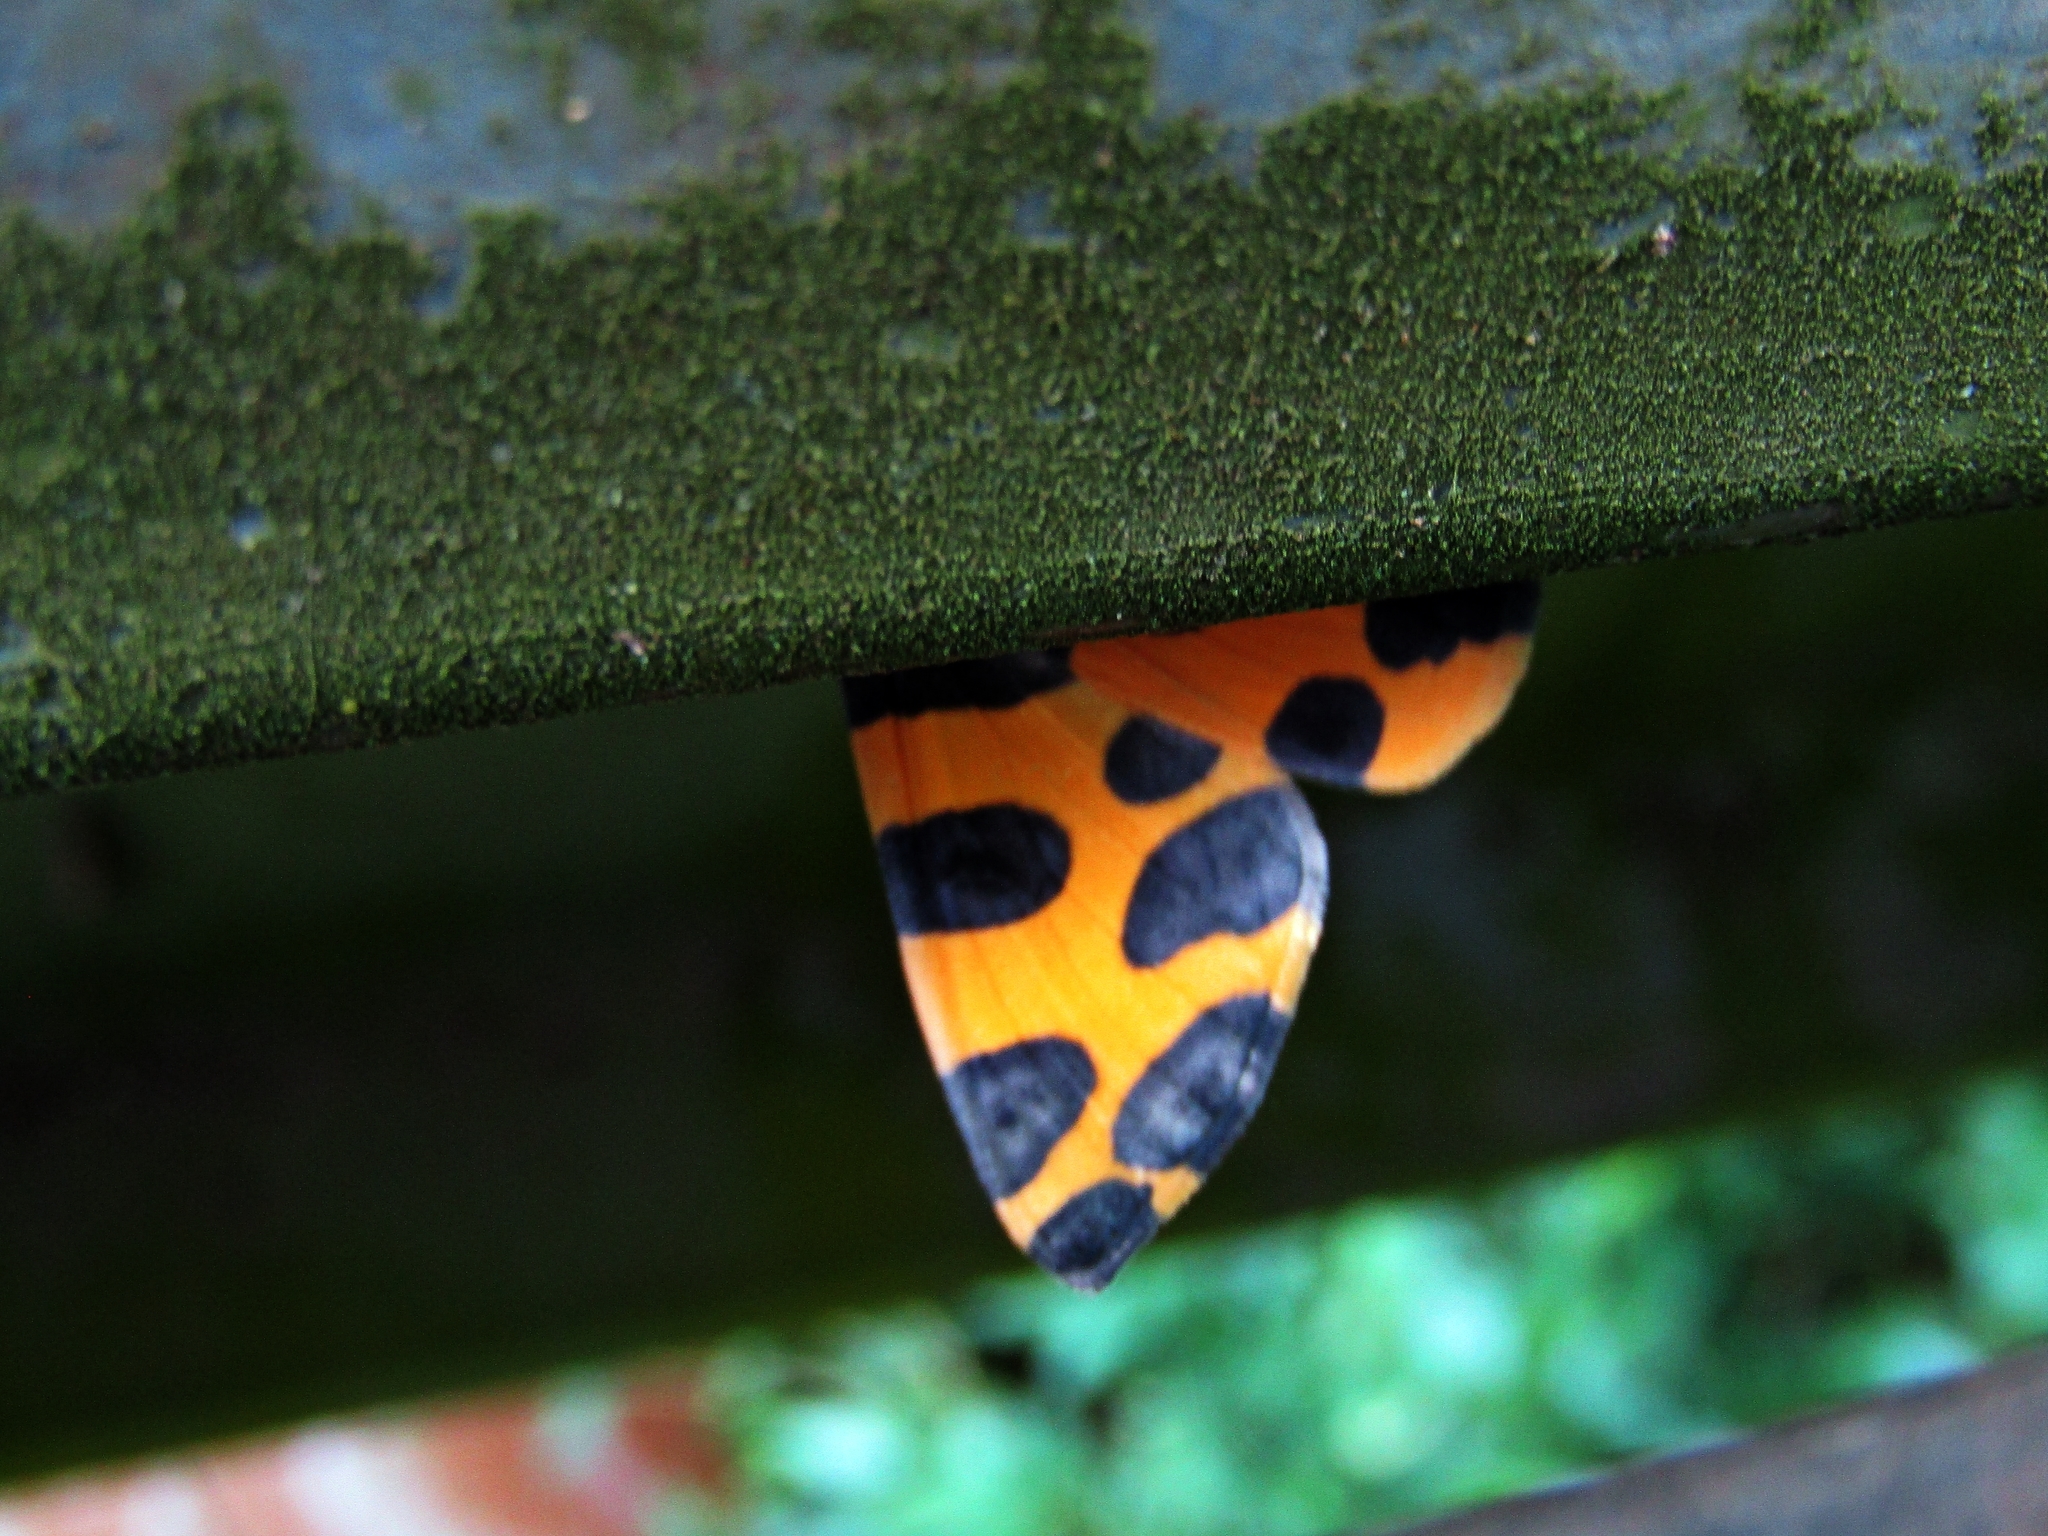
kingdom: Animalia
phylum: Arthropoda
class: Insecta
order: Lepidoptera
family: Geometridae
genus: Pantherodes
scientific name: Pantherodes pardalaria
